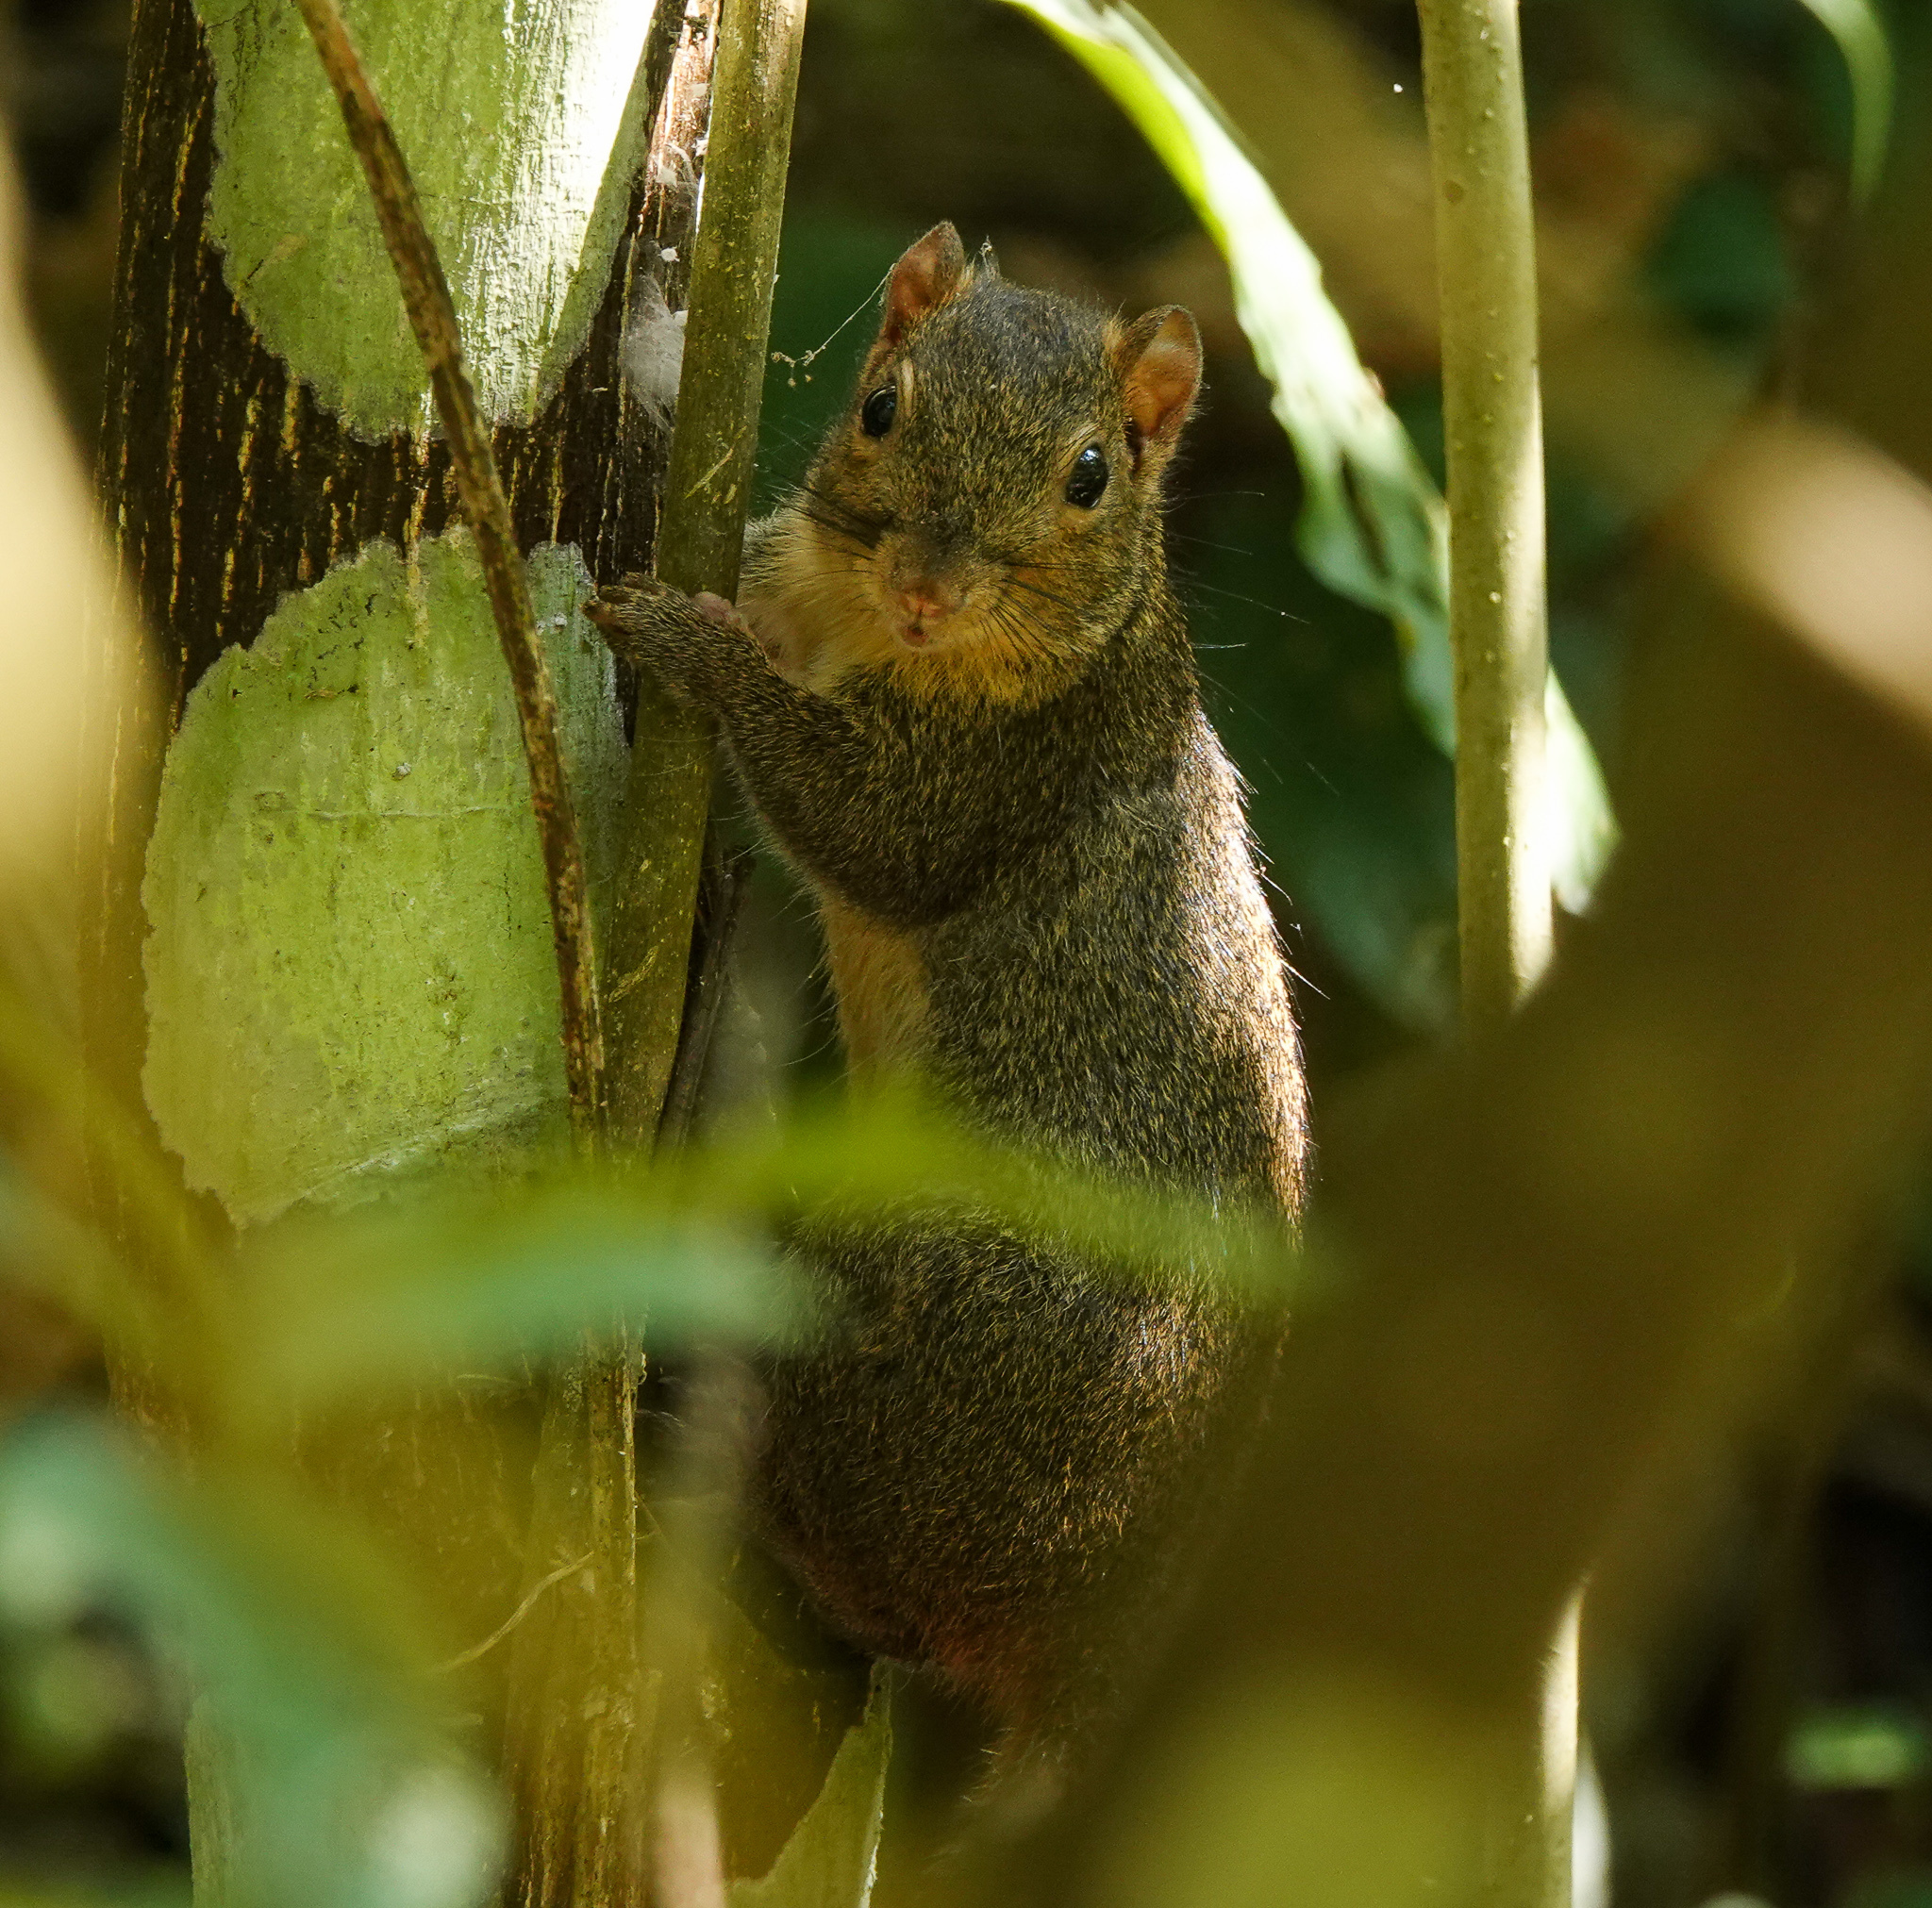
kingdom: Animalia
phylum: Chordata
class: Mammalia
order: Rodentia
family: Sciuridae
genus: Dremomys
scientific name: Dremomys lokriah
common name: Orange-bellied himalayan squirrel
